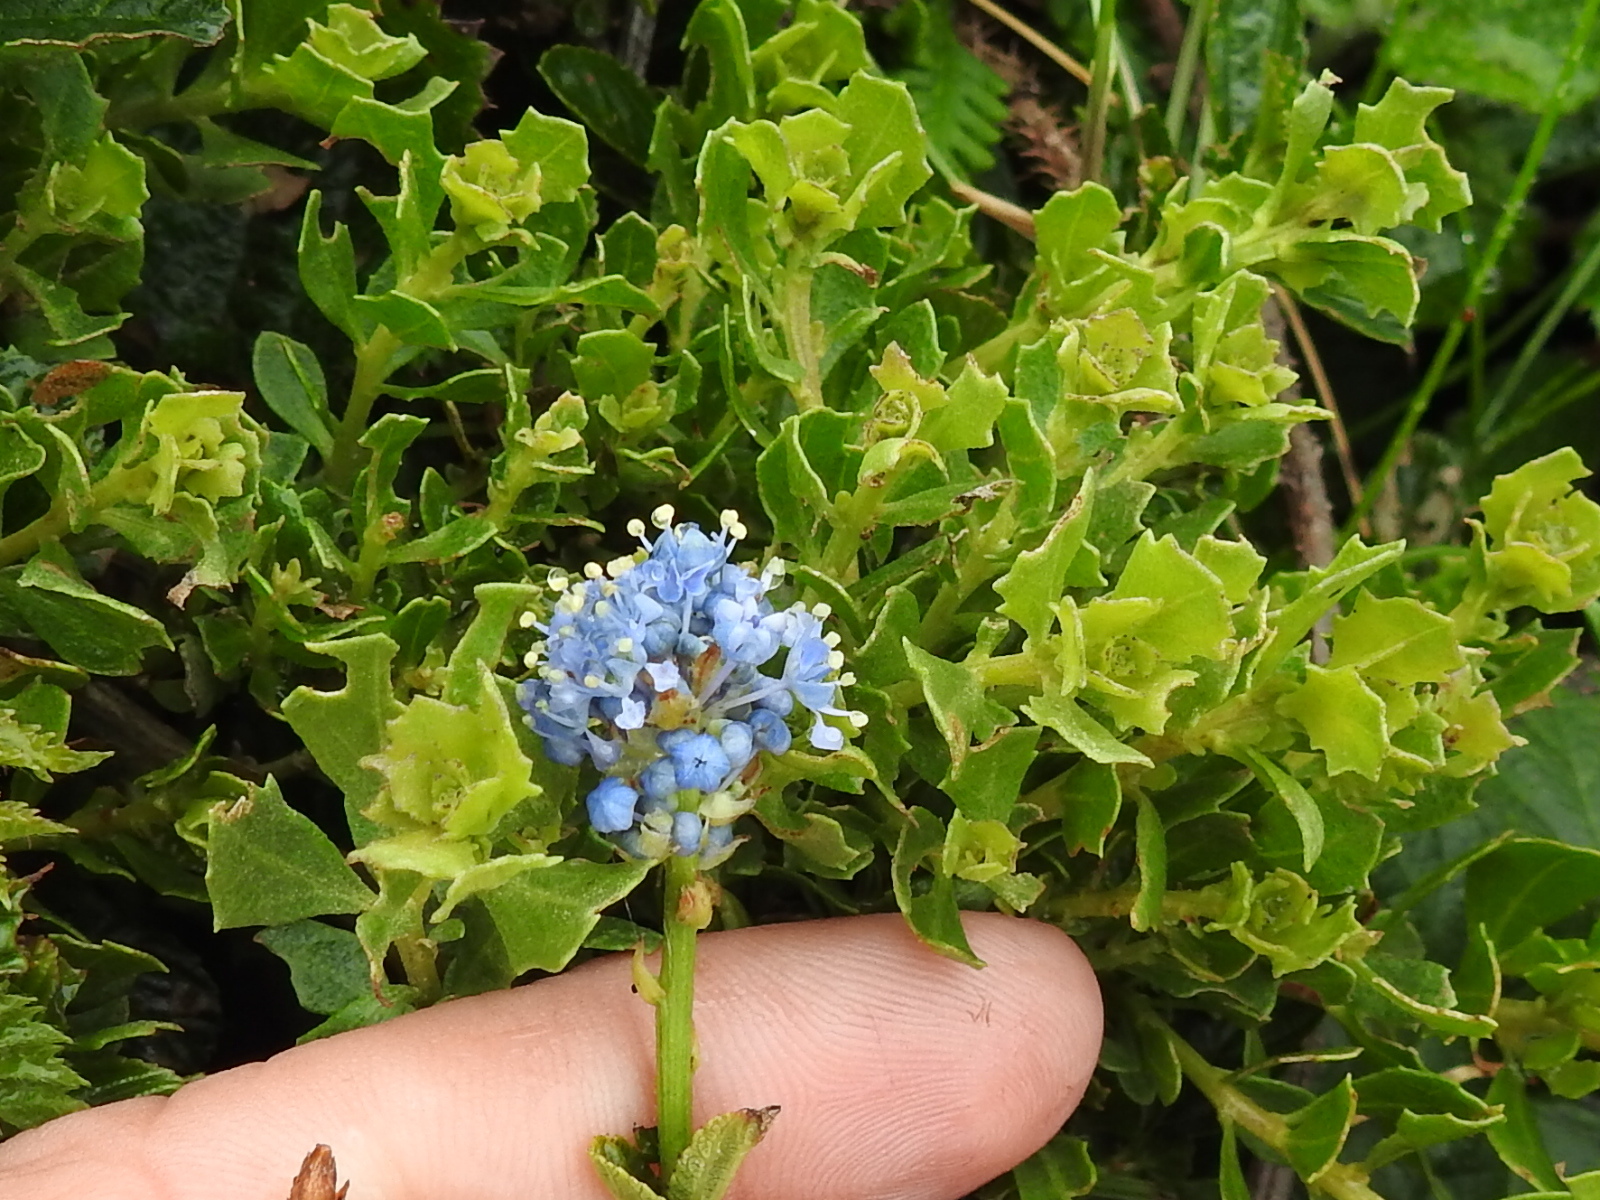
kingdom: Plantae
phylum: Tracheophyta
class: Magnoliopsida
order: Rosales
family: Rhamnaceae
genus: Ceanothus
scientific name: Ceanothus gloriosus
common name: Point reyes ceanothus
